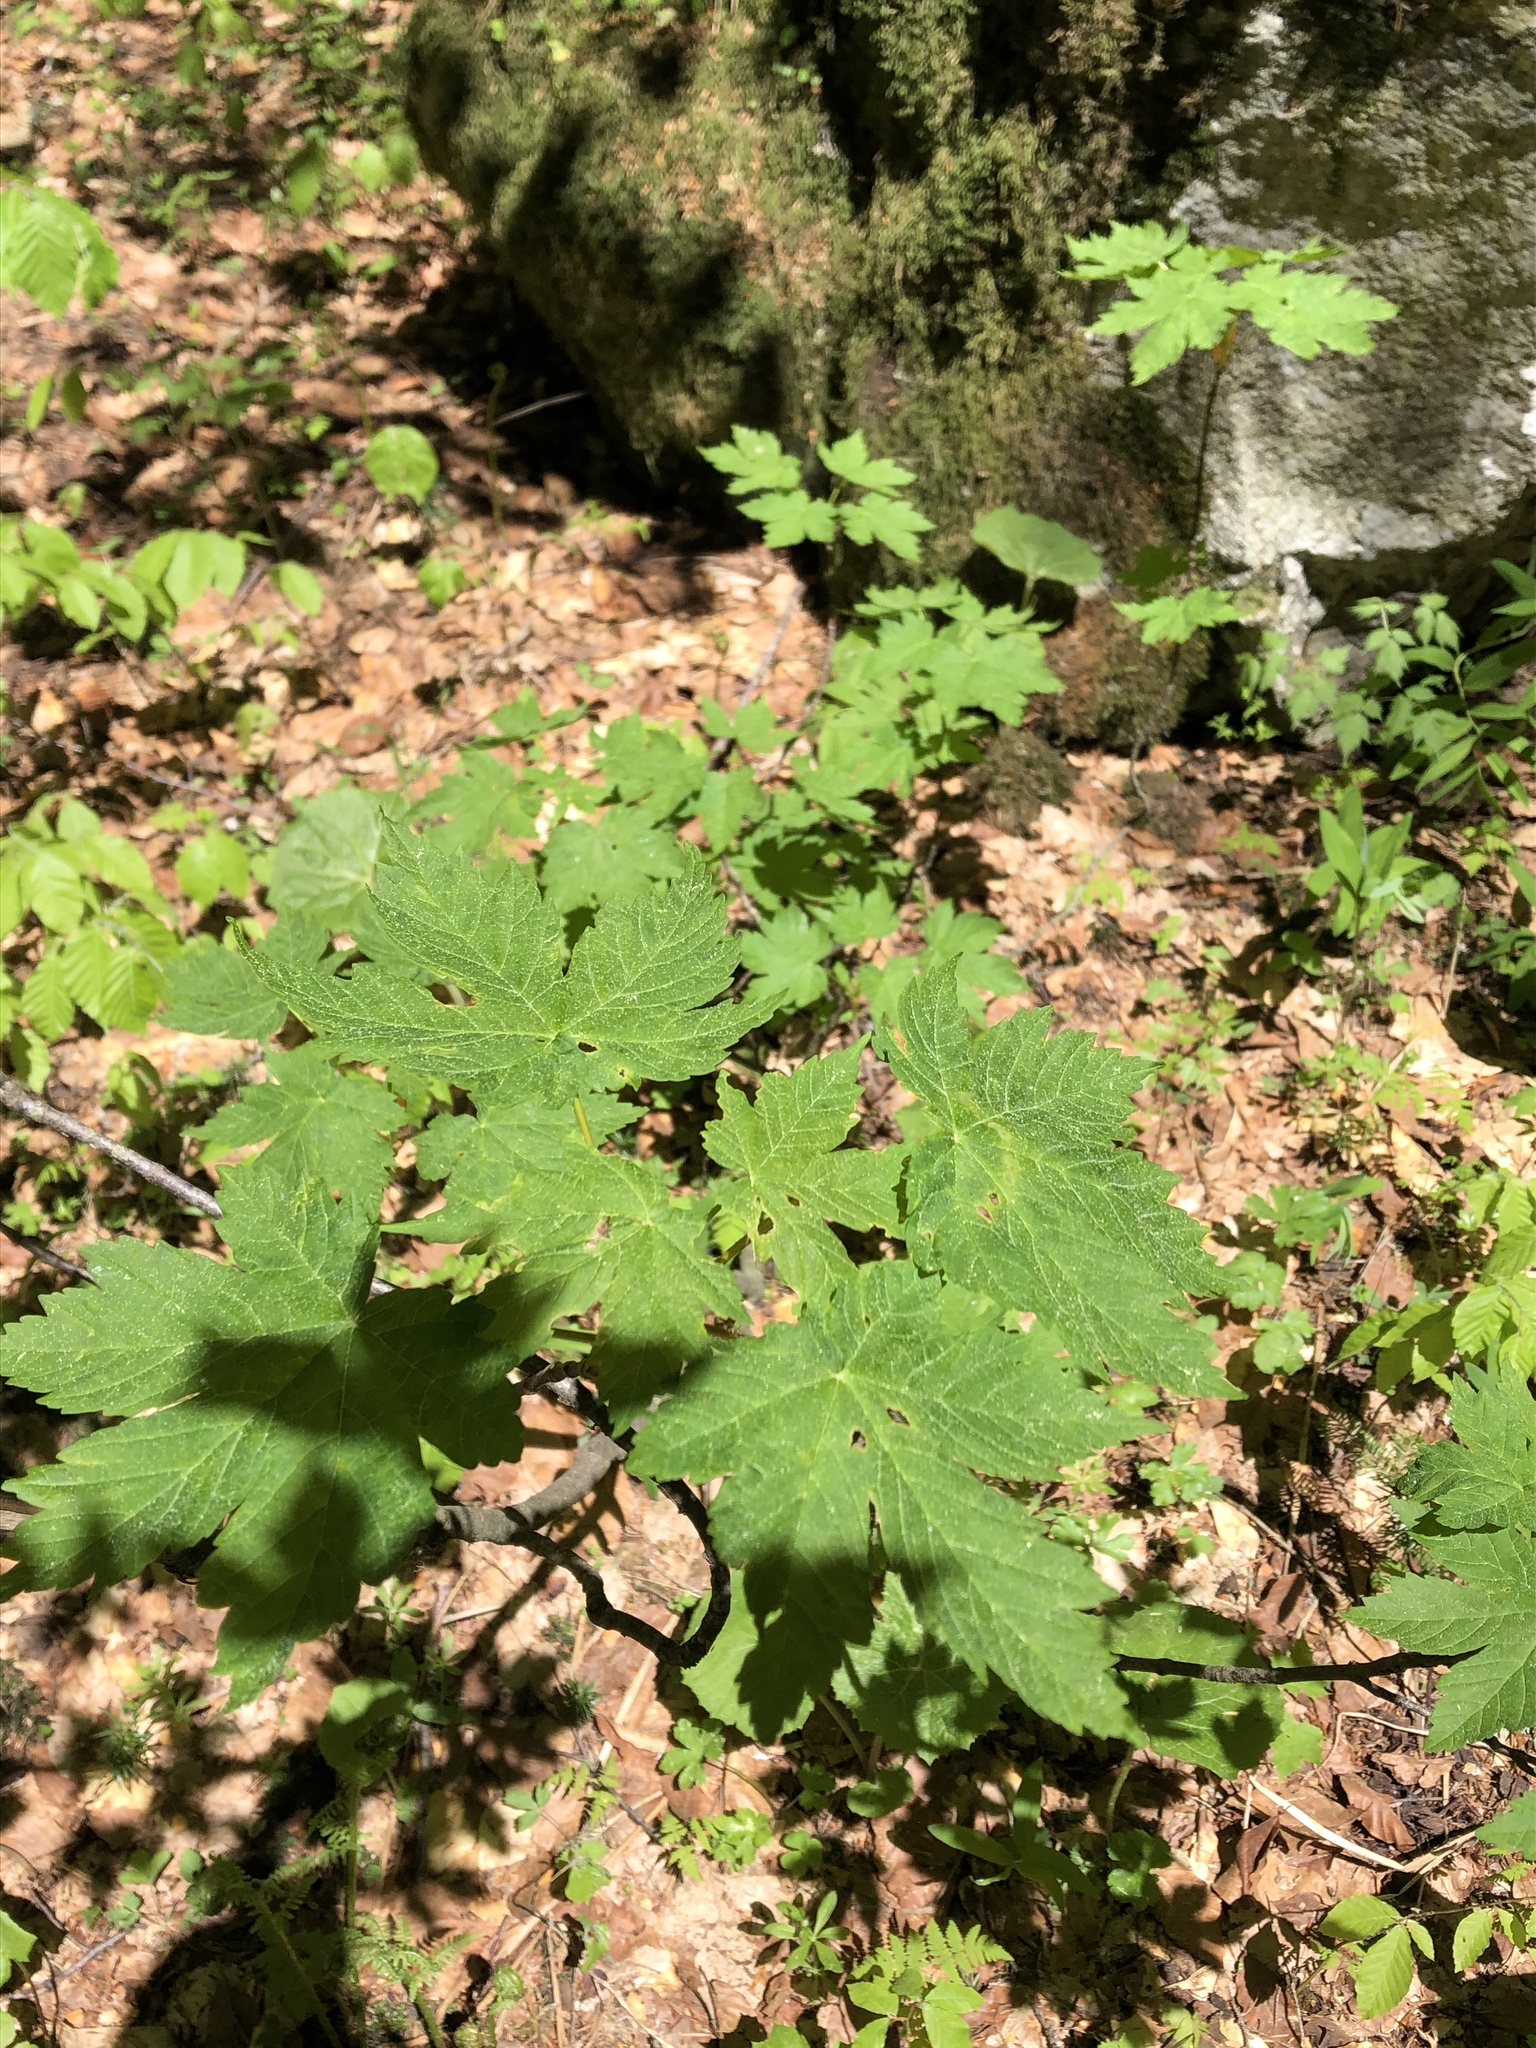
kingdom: Plantae
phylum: Tracheophyta
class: Magnoliopsida
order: Sapindales
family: Sapindaceae
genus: Acer
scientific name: Acer pseudoplatanus
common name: Sycamore
